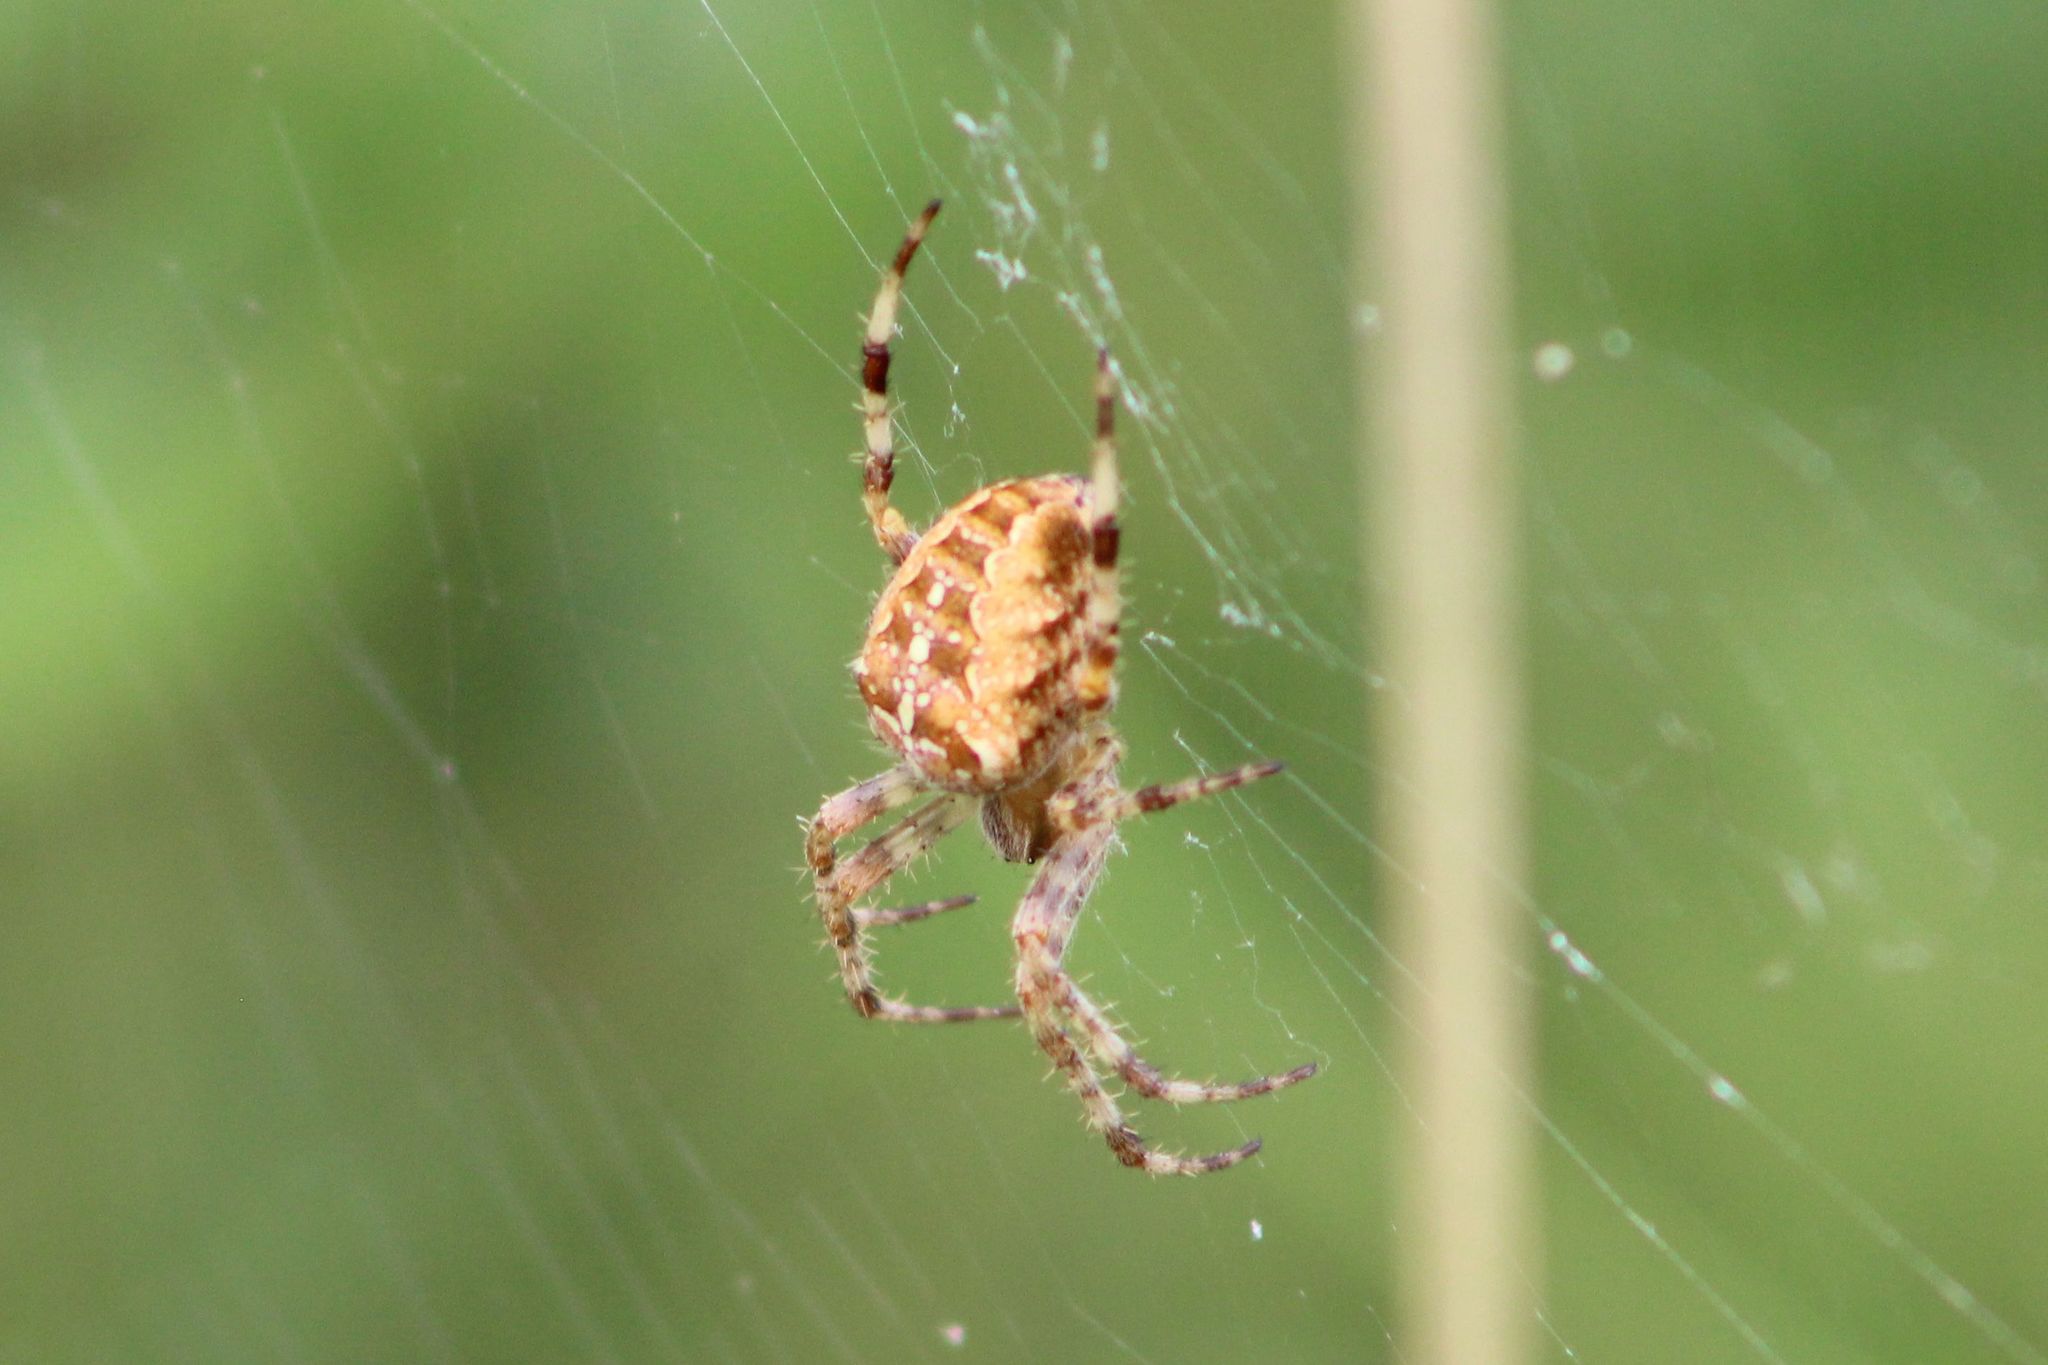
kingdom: Animalia
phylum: Arthropoda
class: Arachnida
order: Araneae
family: Araneidae
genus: Araneus
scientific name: Araneus diadematus
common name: Cross orbweaver
